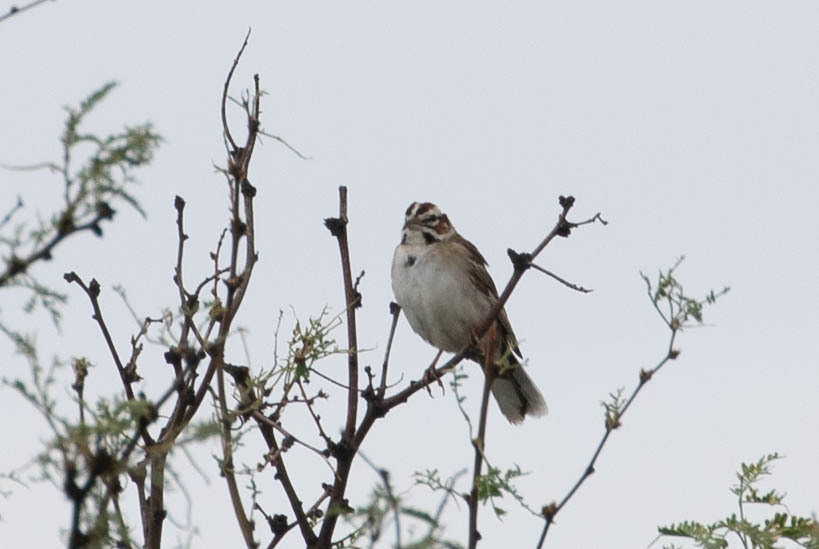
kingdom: Animalia
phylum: Chordata
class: Aves
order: Passeriformes
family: Passerellidae
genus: Chondestes
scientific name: Chondestes grammacus
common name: Lark sparrow
